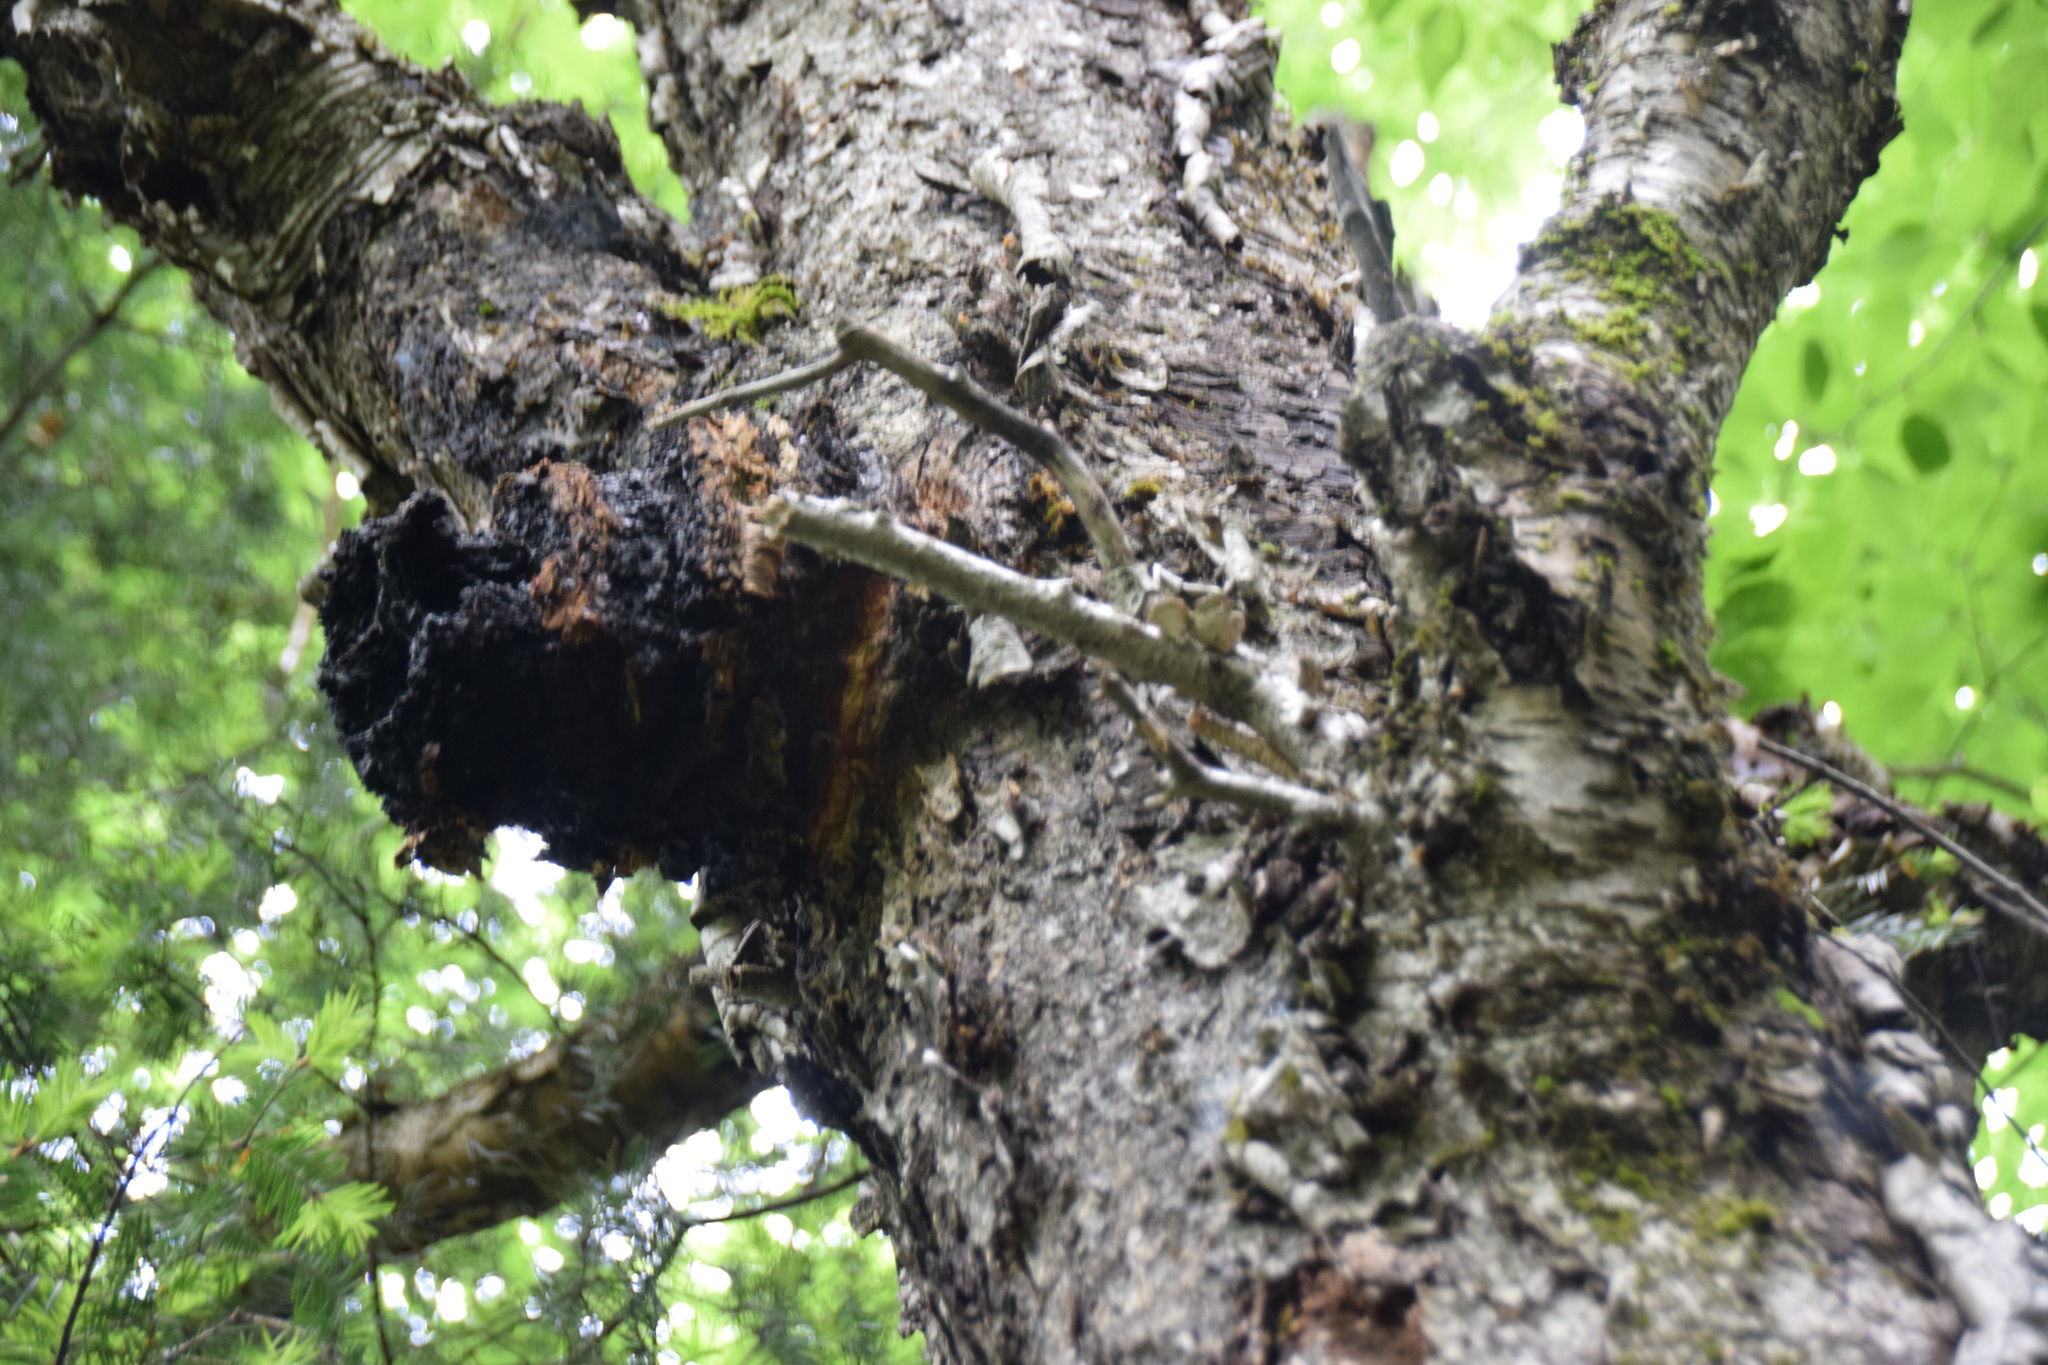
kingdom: Fungi
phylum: Basidiomycota
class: Agaricomycetes
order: Hymenochaetales
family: Hymenochaetaceae
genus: Inonotus
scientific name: Inonotus obliquus
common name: Chaga
